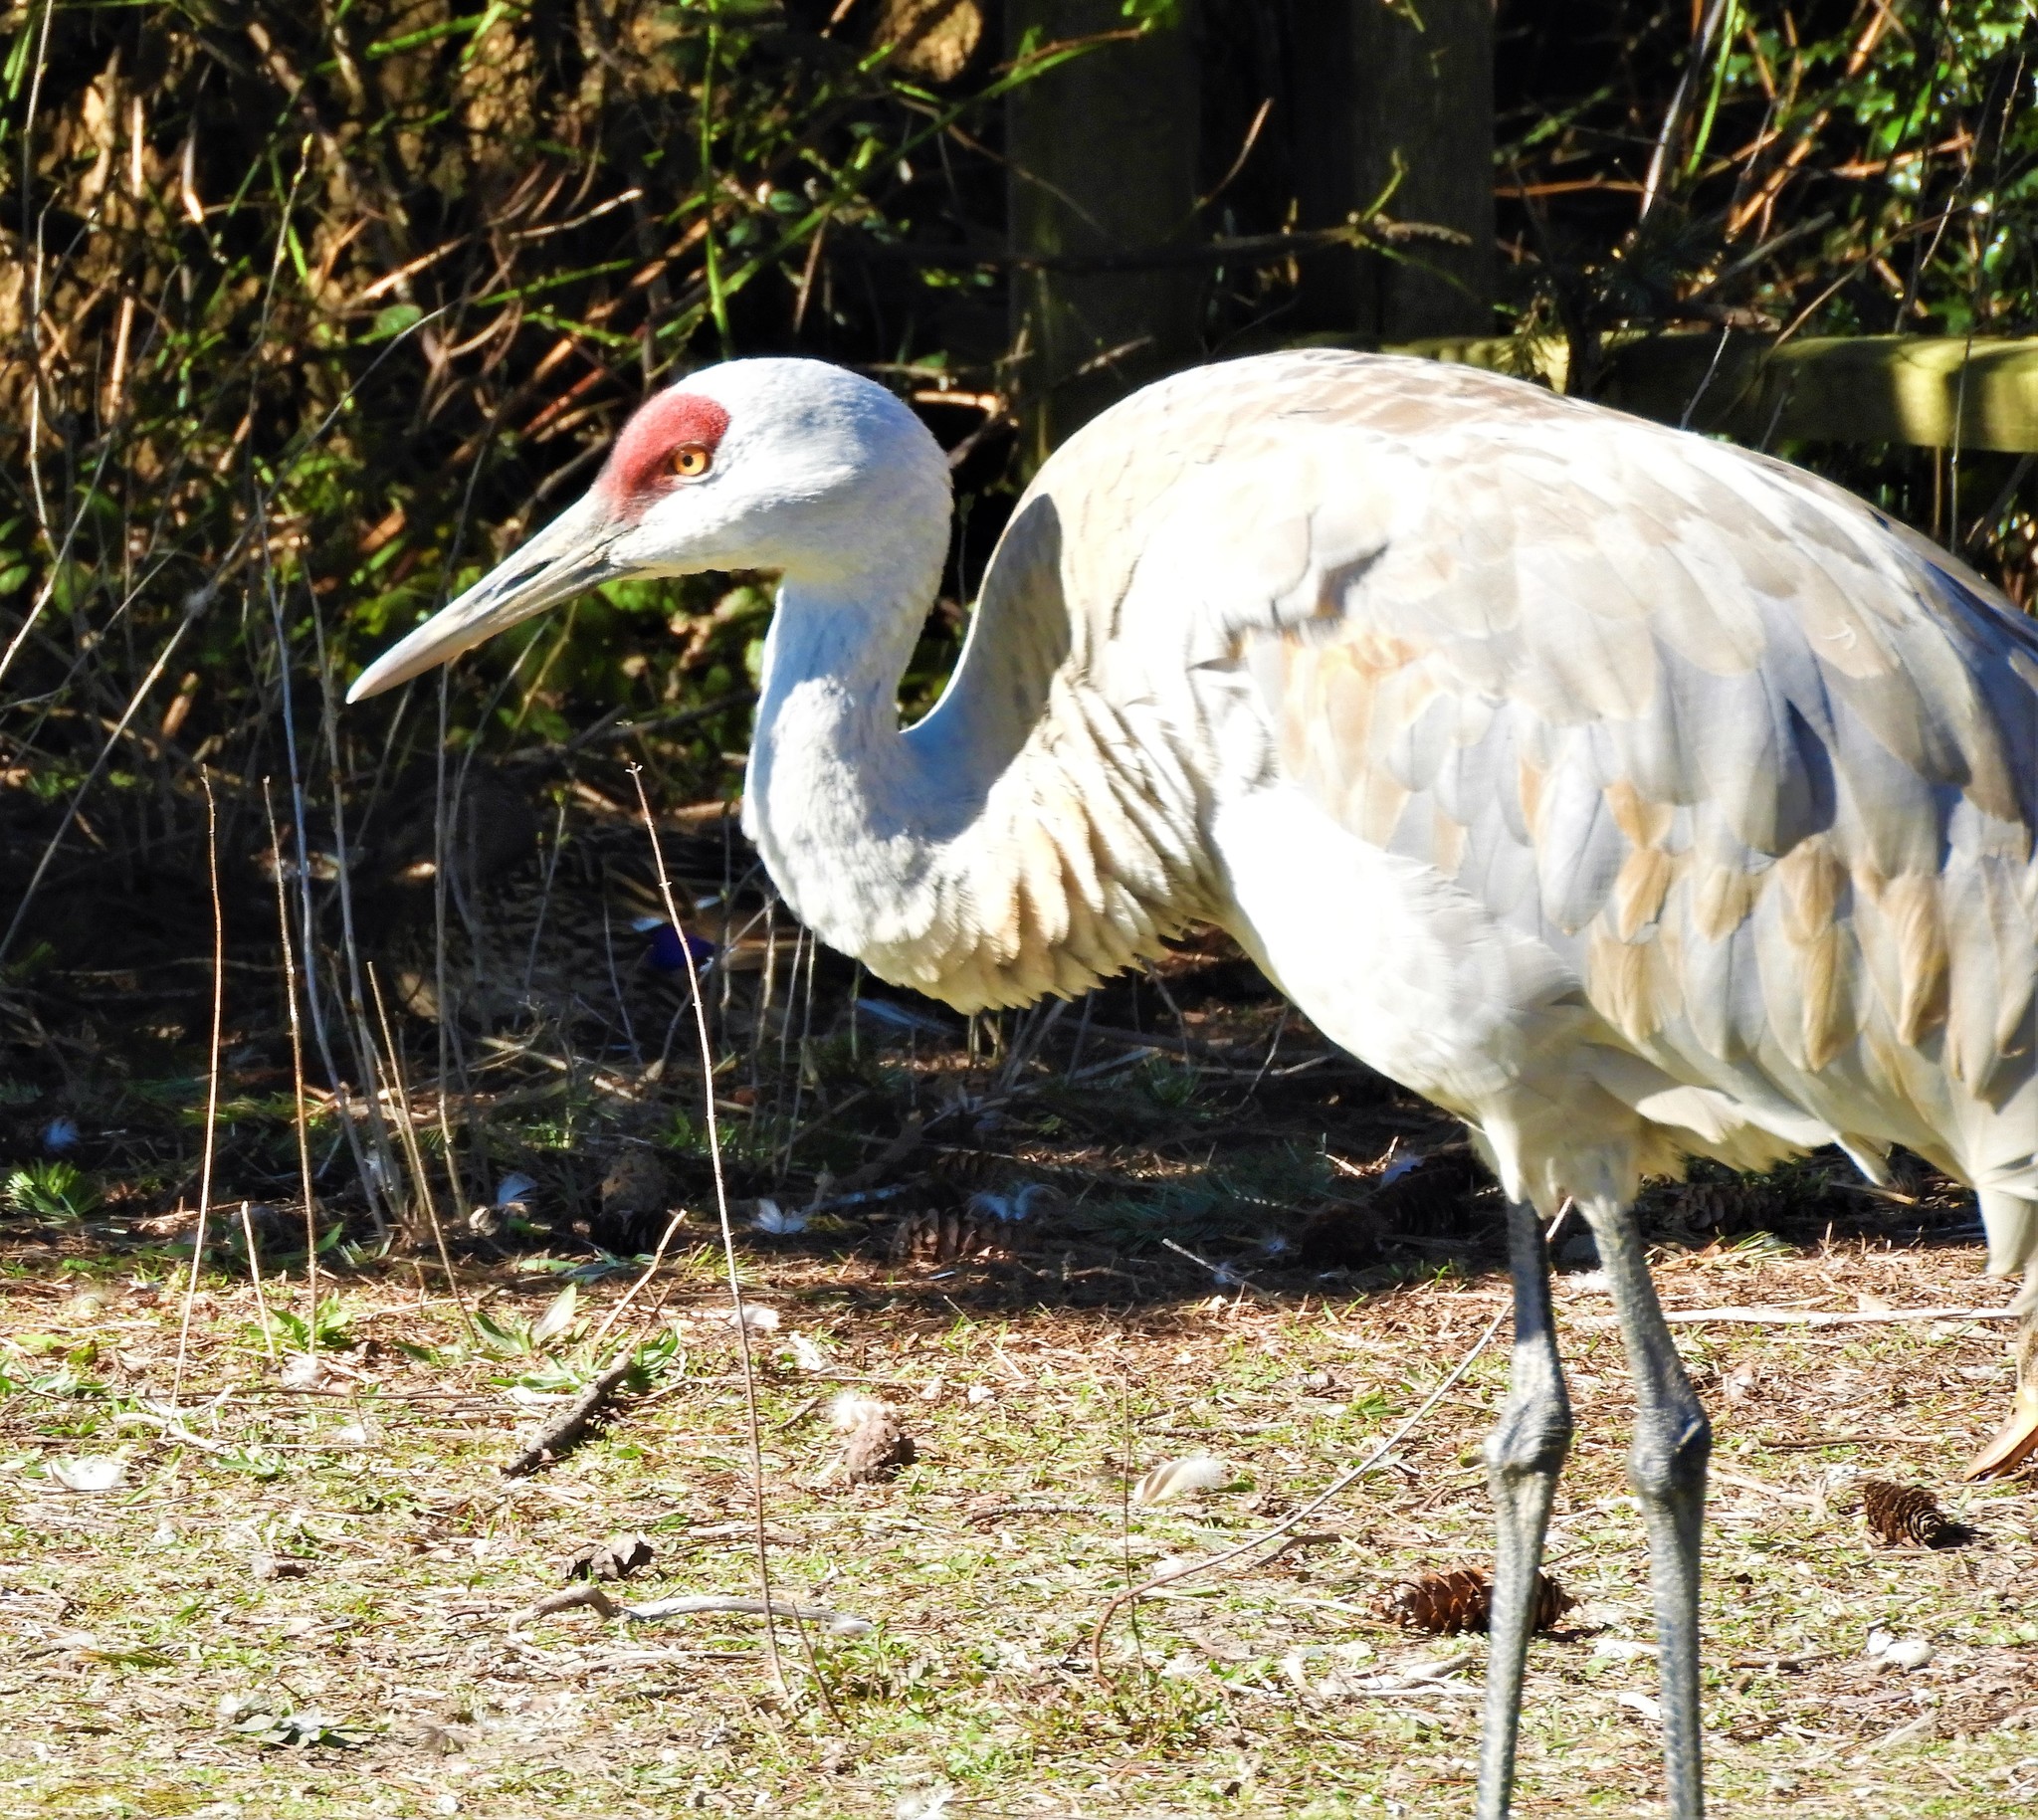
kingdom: Animalia
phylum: Chordata
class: Aves
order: Gruiformes
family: Gruidae
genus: Grus
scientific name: Grus canadensis
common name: Sandhill crane
